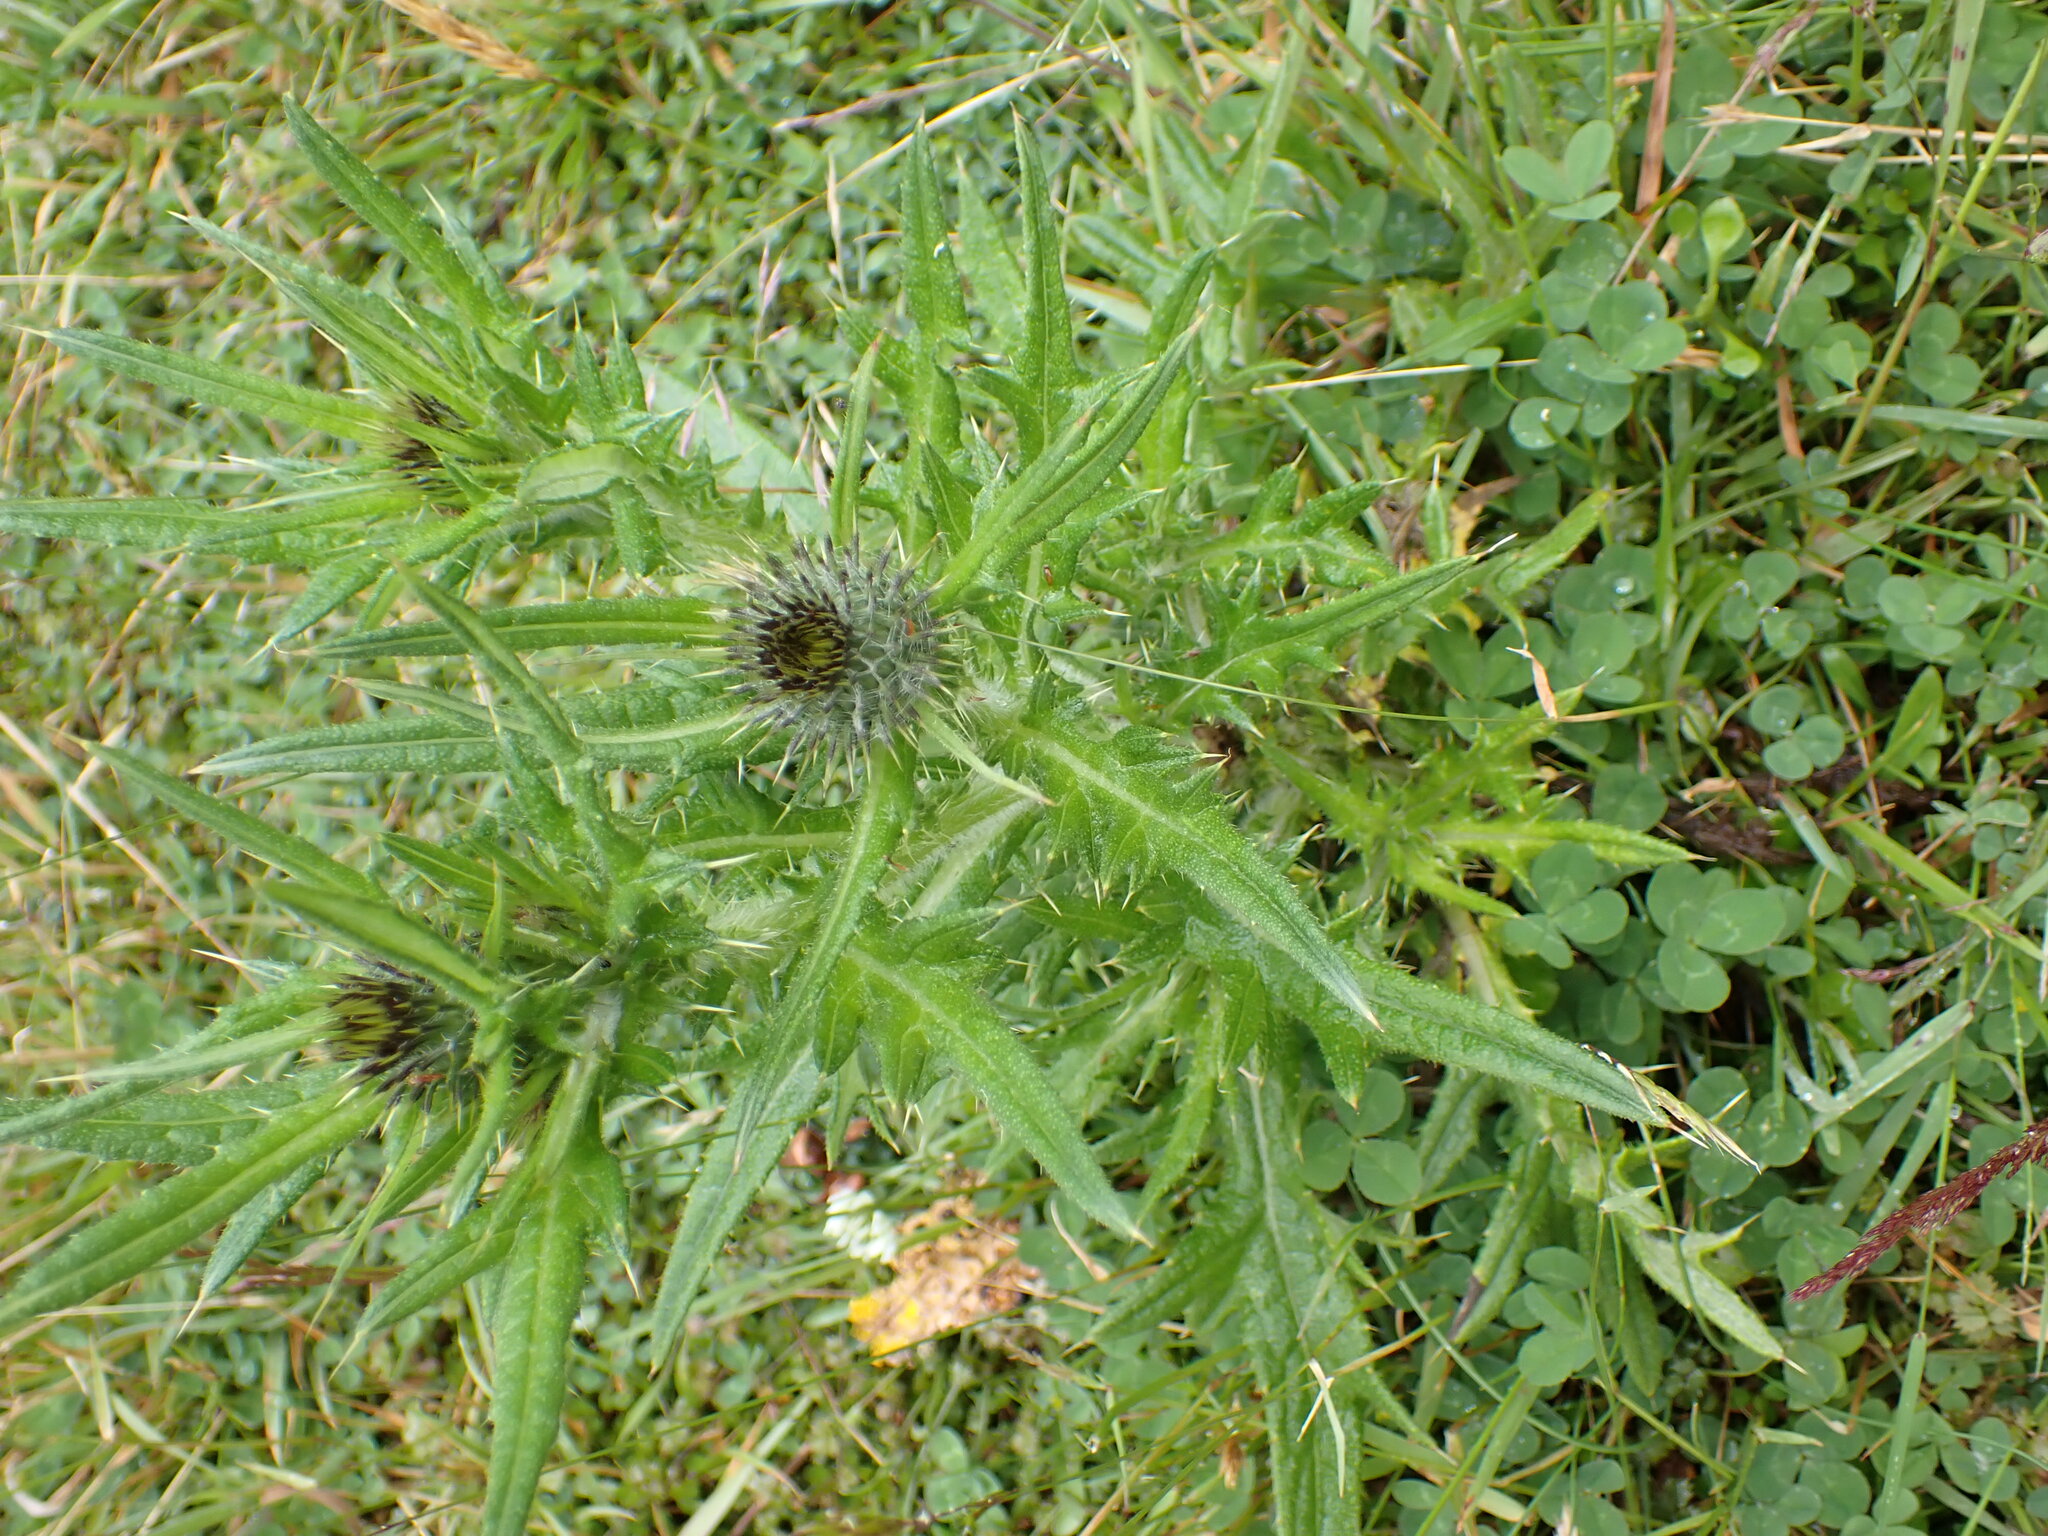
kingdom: Plantae
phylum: Tracheophyta
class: Magnoliopsida
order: Asterales
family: Asteraceae
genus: Cirsium
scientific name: Cirsium vulgare
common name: Bull thistle
